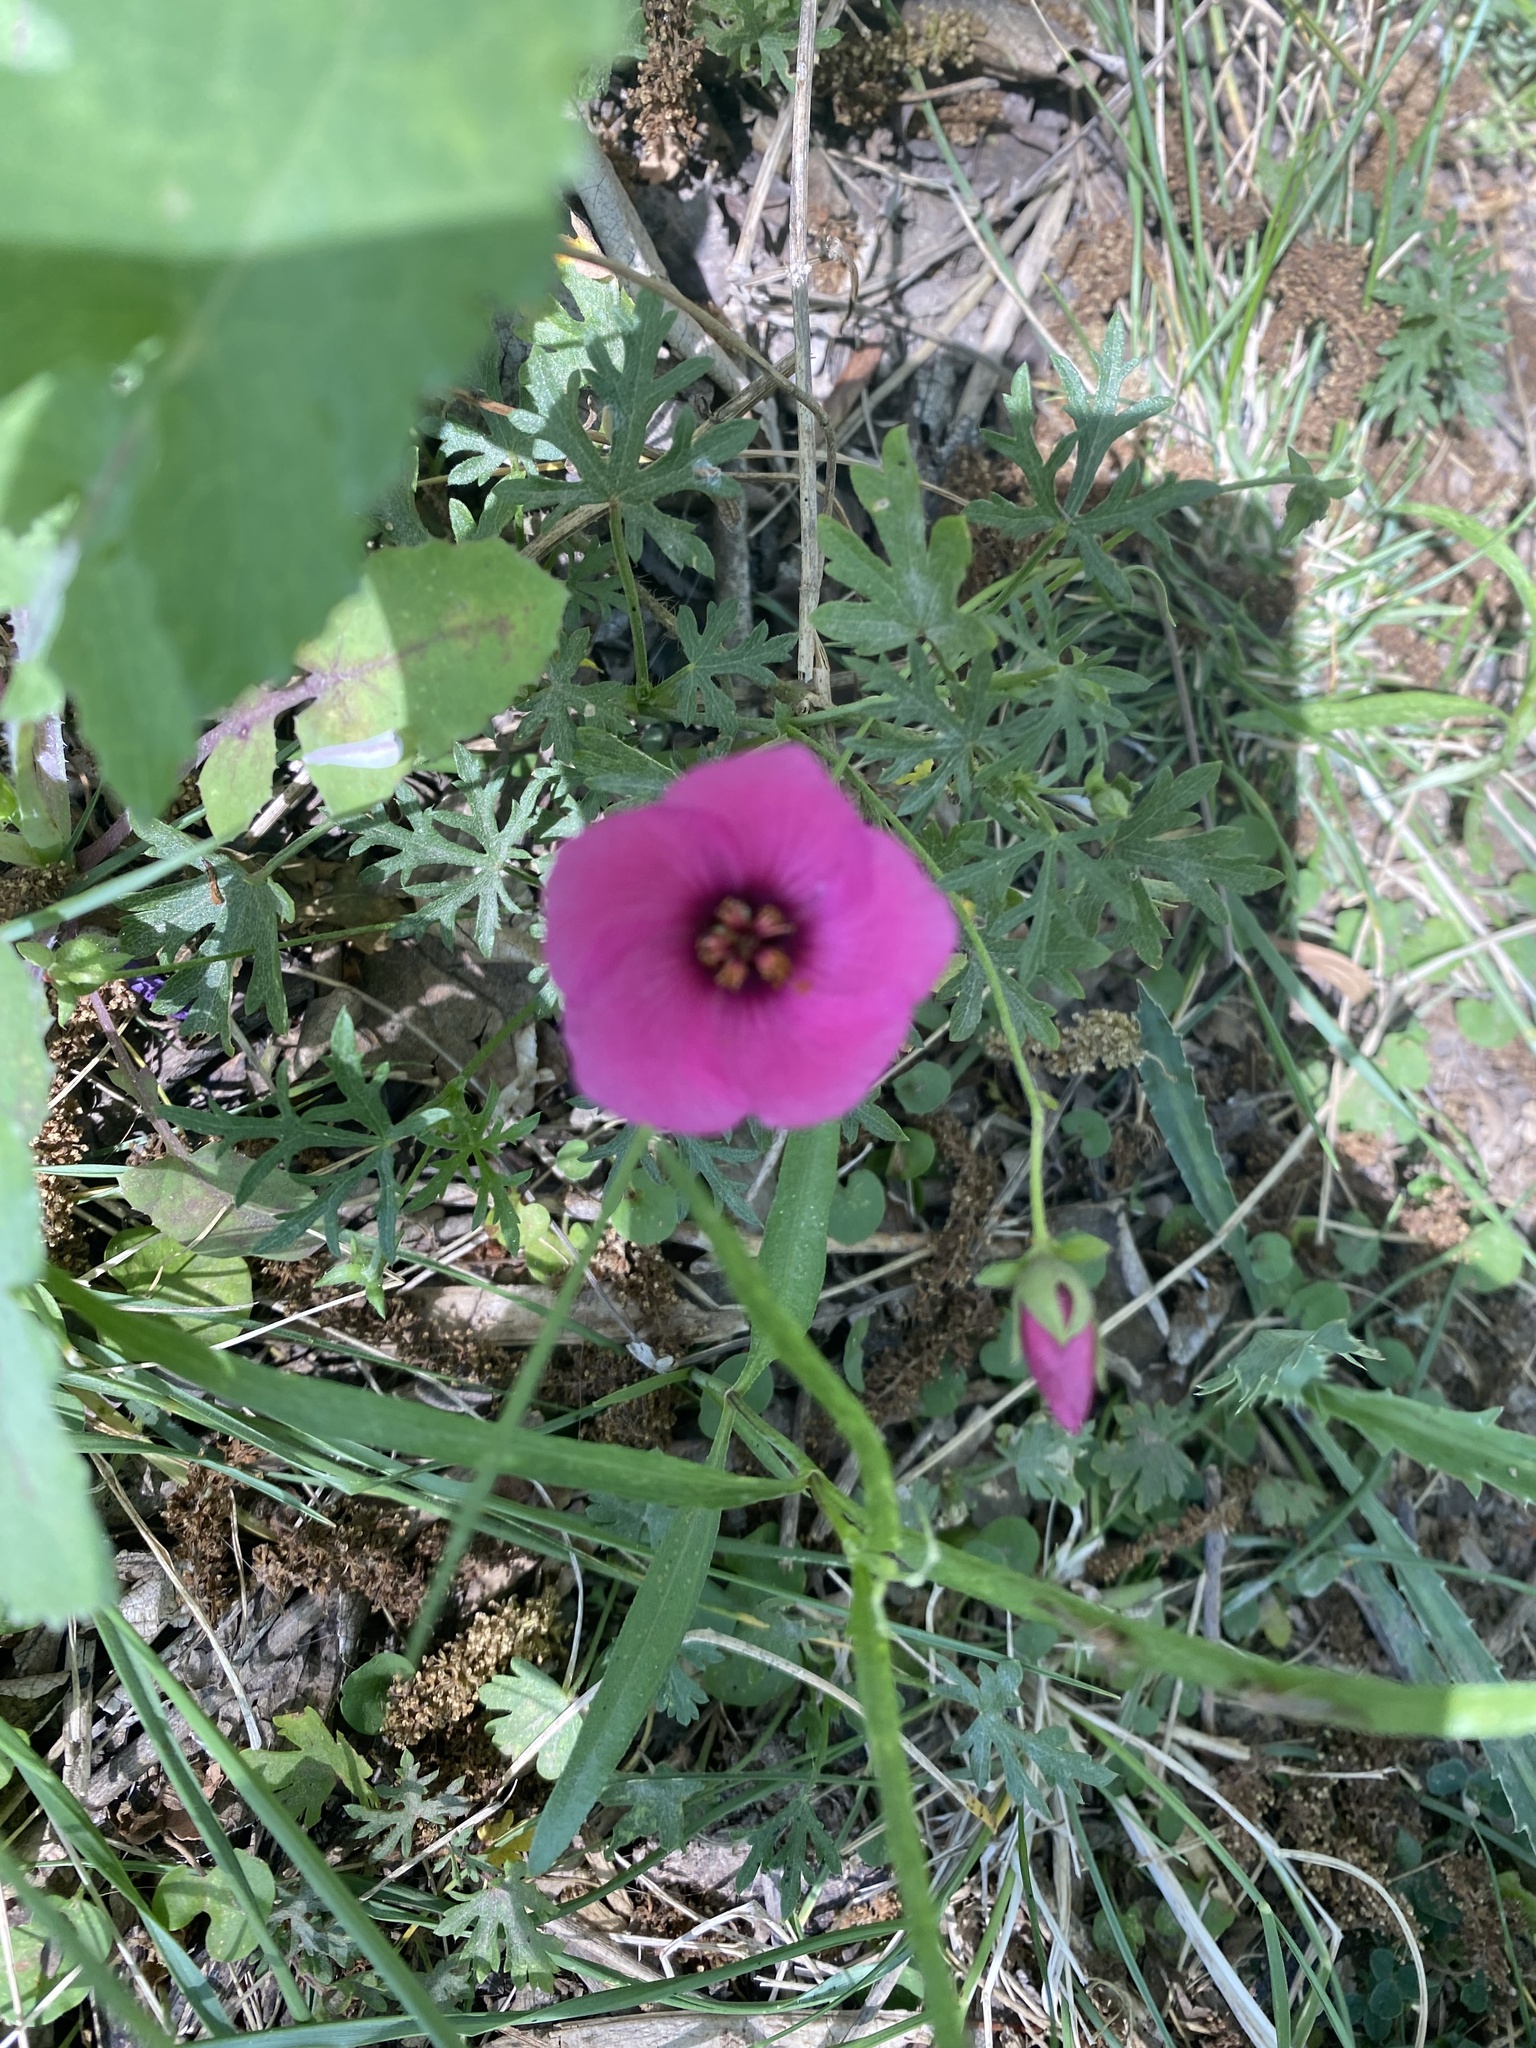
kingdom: Plantae
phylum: Tracheophyta
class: Magnoliopsida
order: Malvales
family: Malvaceae
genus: Modiolastrum
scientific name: Modiolastrum gilliesii
